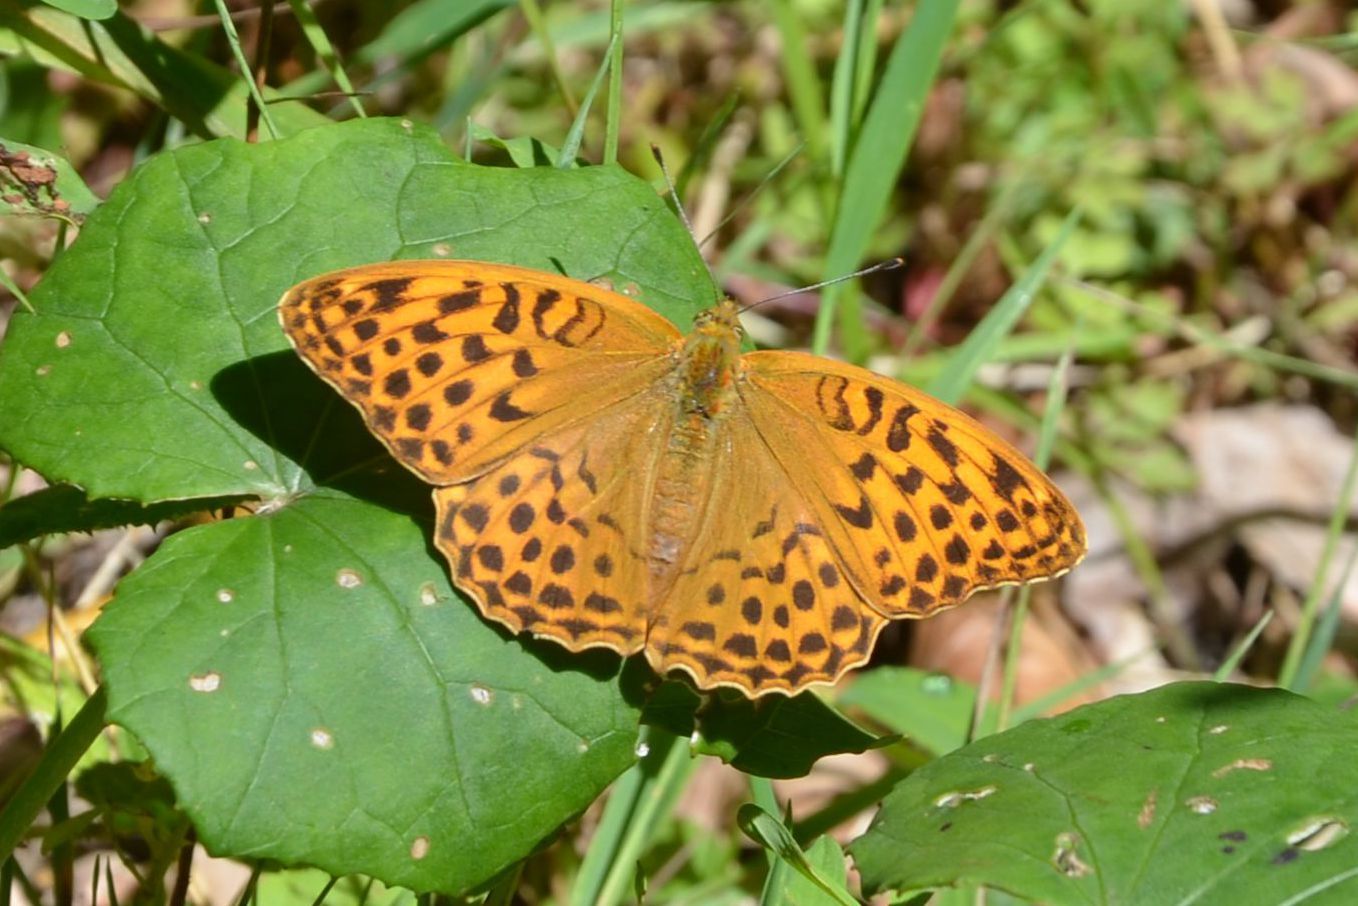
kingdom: Animalia
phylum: Arthropoda
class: Insecta
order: Lepidoptera
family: Nymphalidae
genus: Argynnis
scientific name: Argynnis paphia
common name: Silver-washed fritillary
